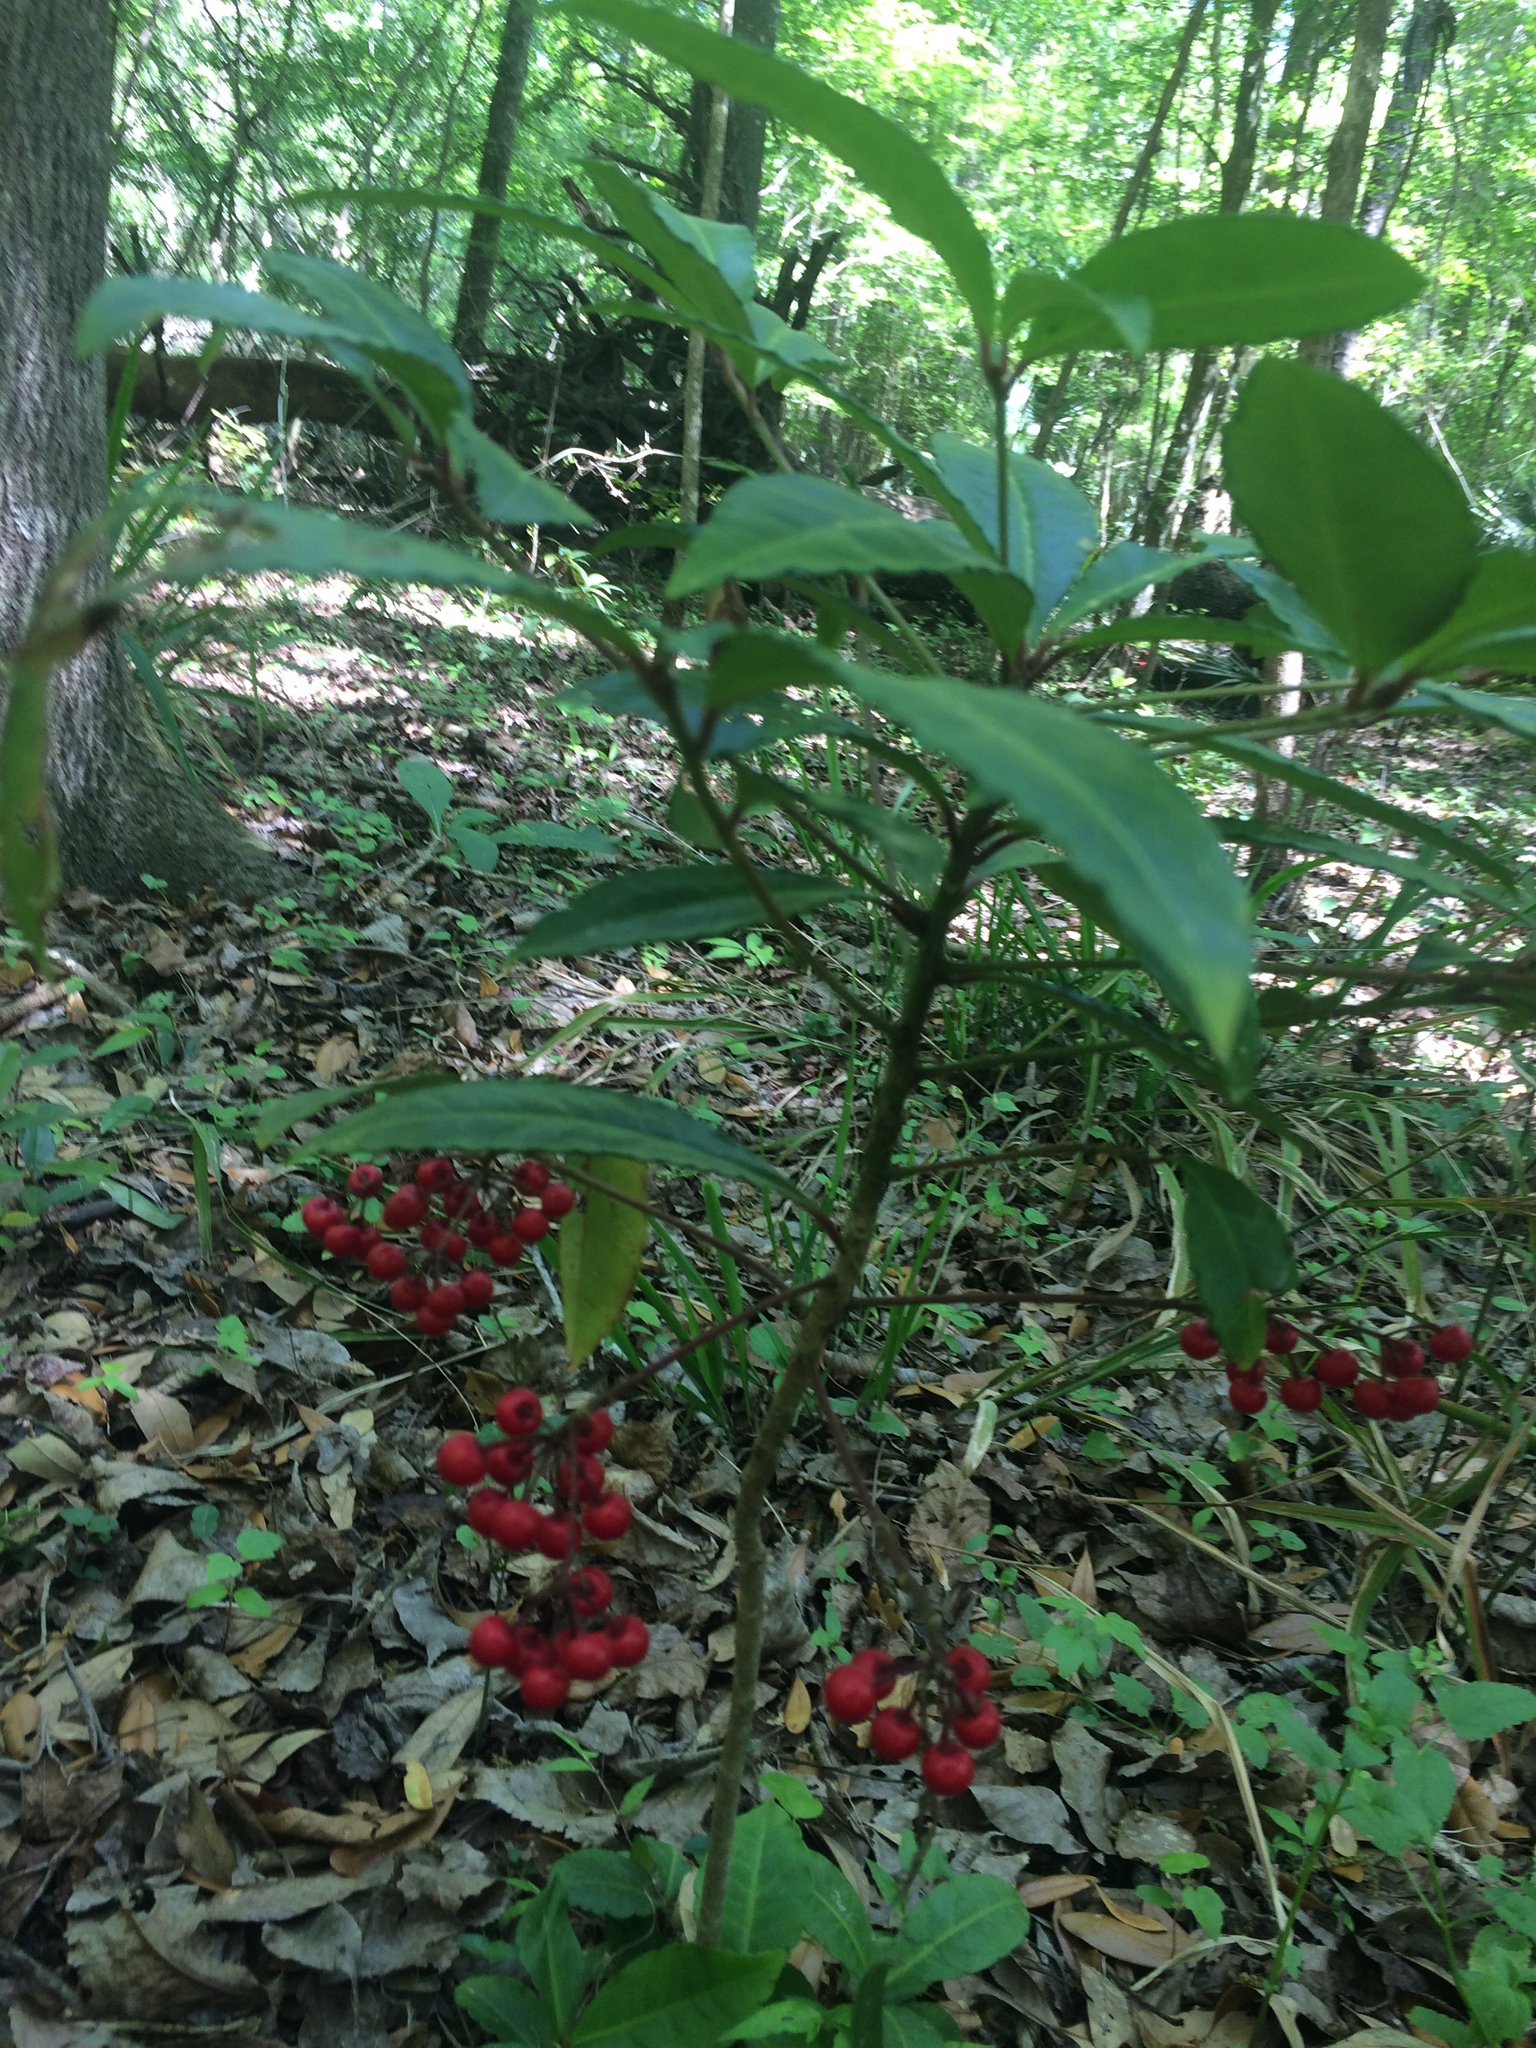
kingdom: Plantae
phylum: Tracheophyta
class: Magnoliopsida
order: Ericales
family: Primulaceae
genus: Ardisia
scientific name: Ardisia crenata
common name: Hen's eyes
